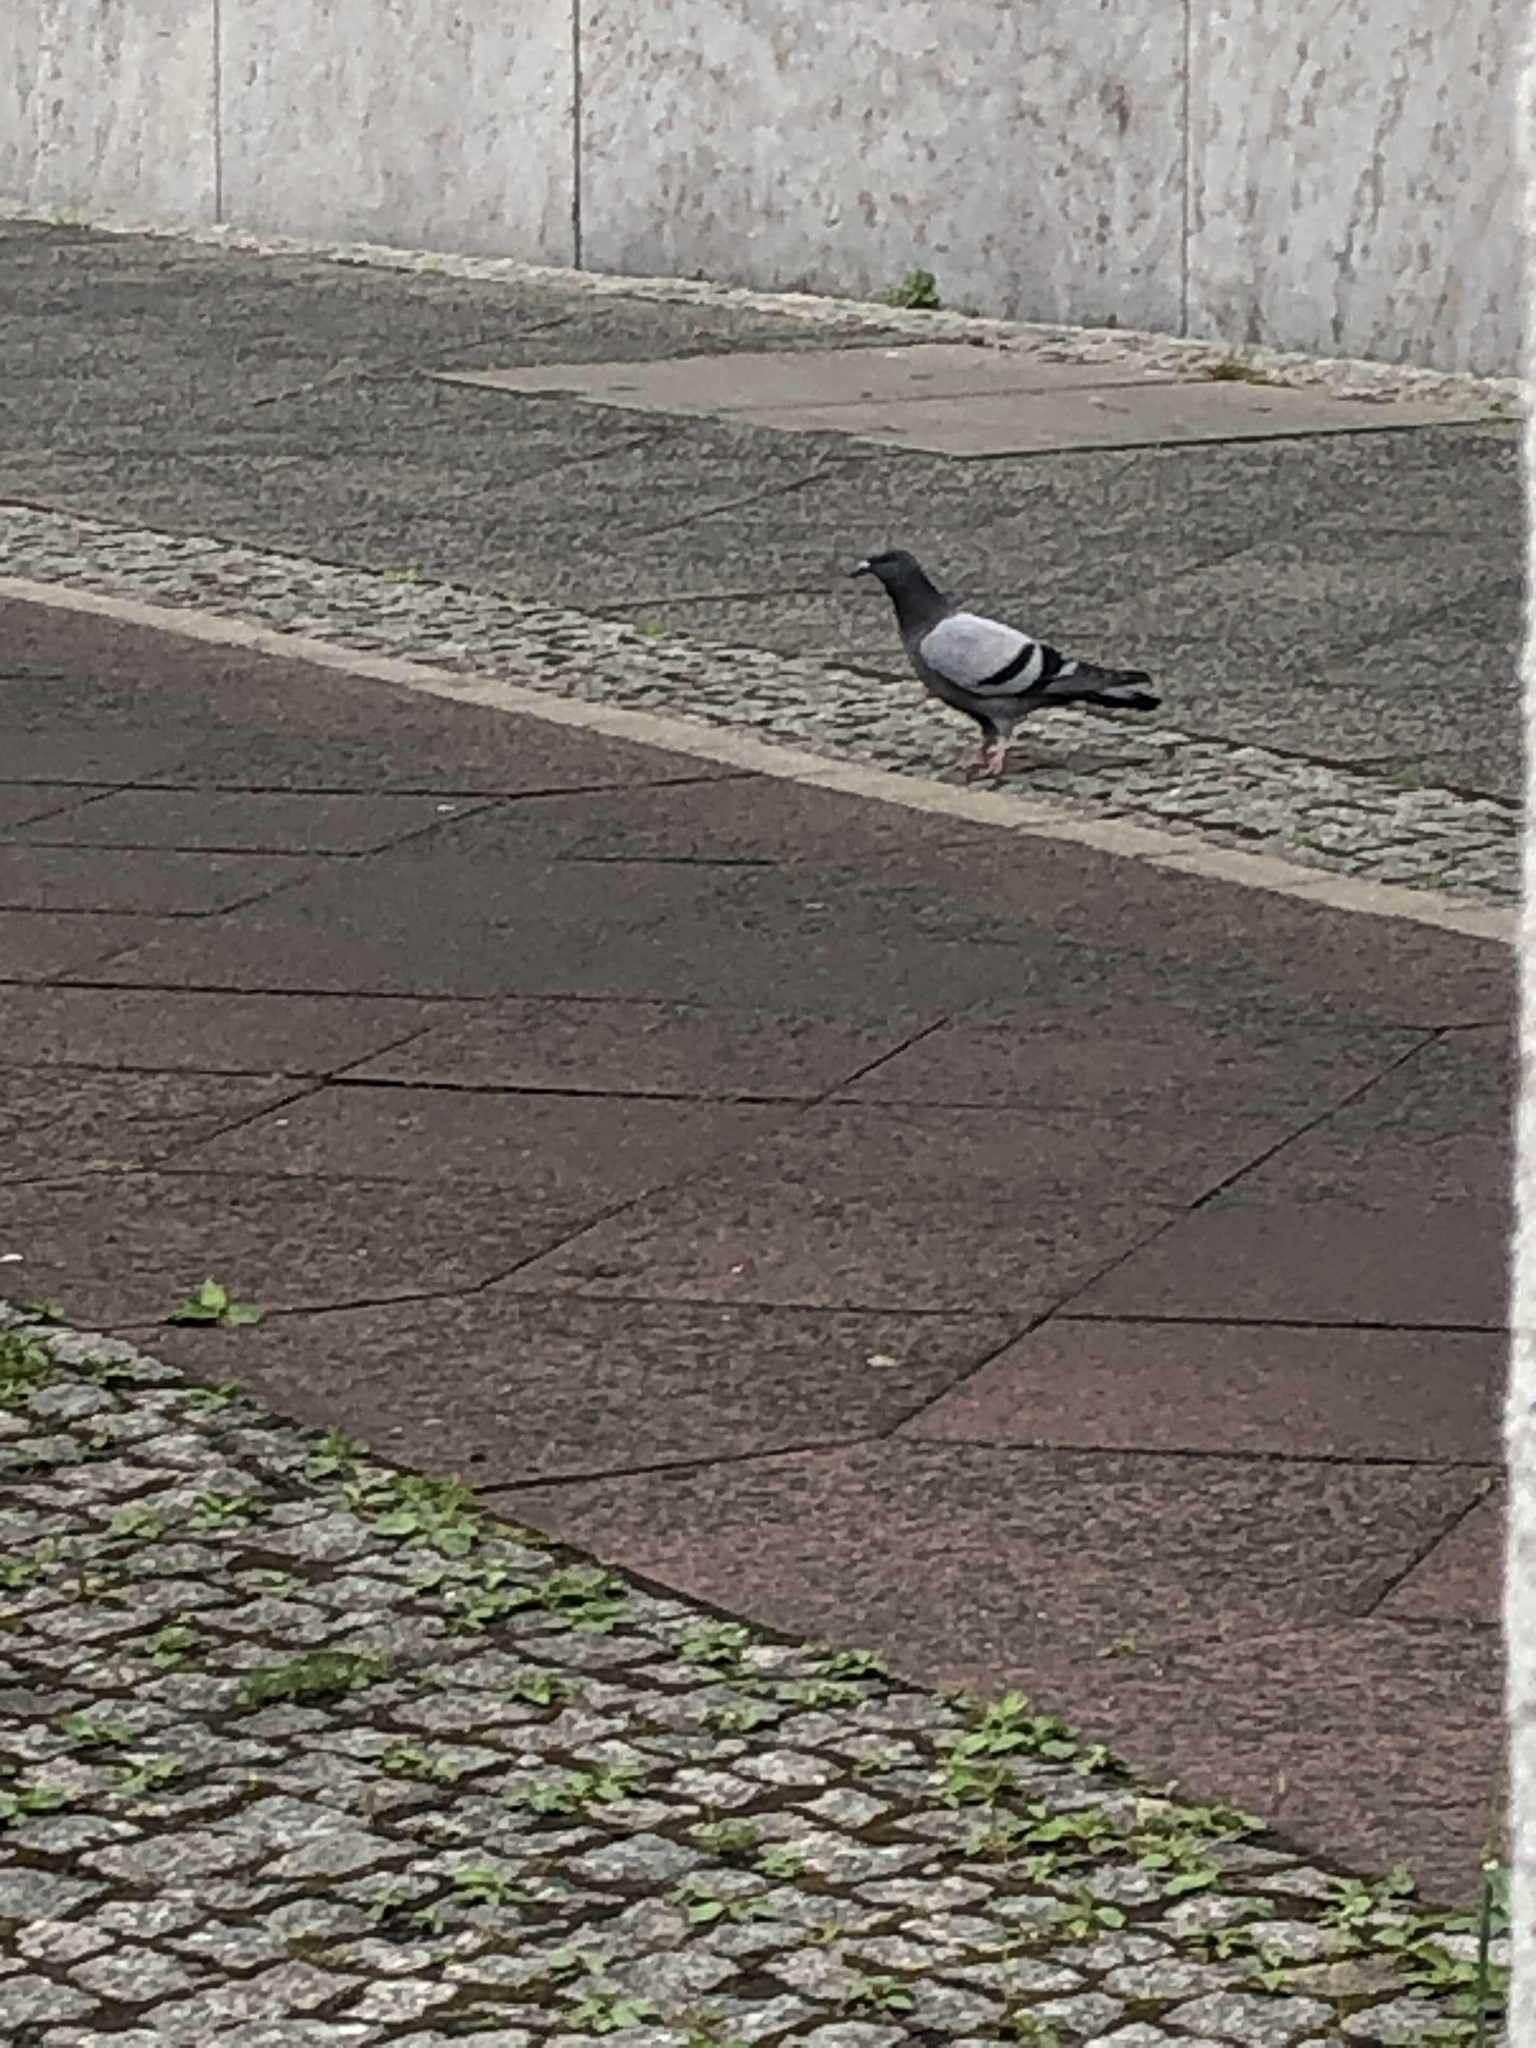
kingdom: Animalia
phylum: Chordata
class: Aves
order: Columbiformes
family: Columbidae
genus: Columba
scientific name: Columba livia
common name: Rock pigeon
